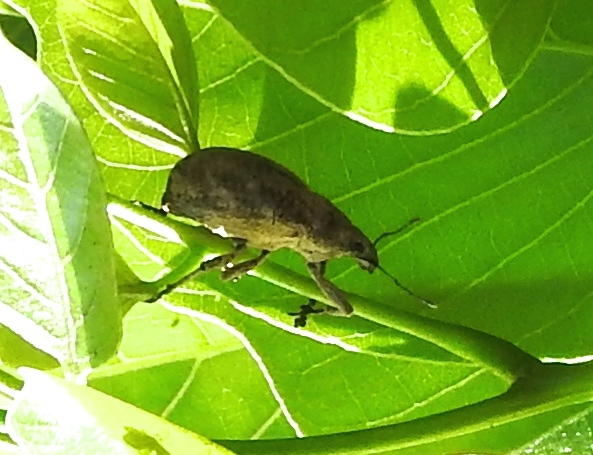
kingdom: Animalia
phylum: Arthropoda
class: Insecta
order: Coleoptera
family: Curculionidae
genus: Epicaerus
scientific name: Epicaerus
